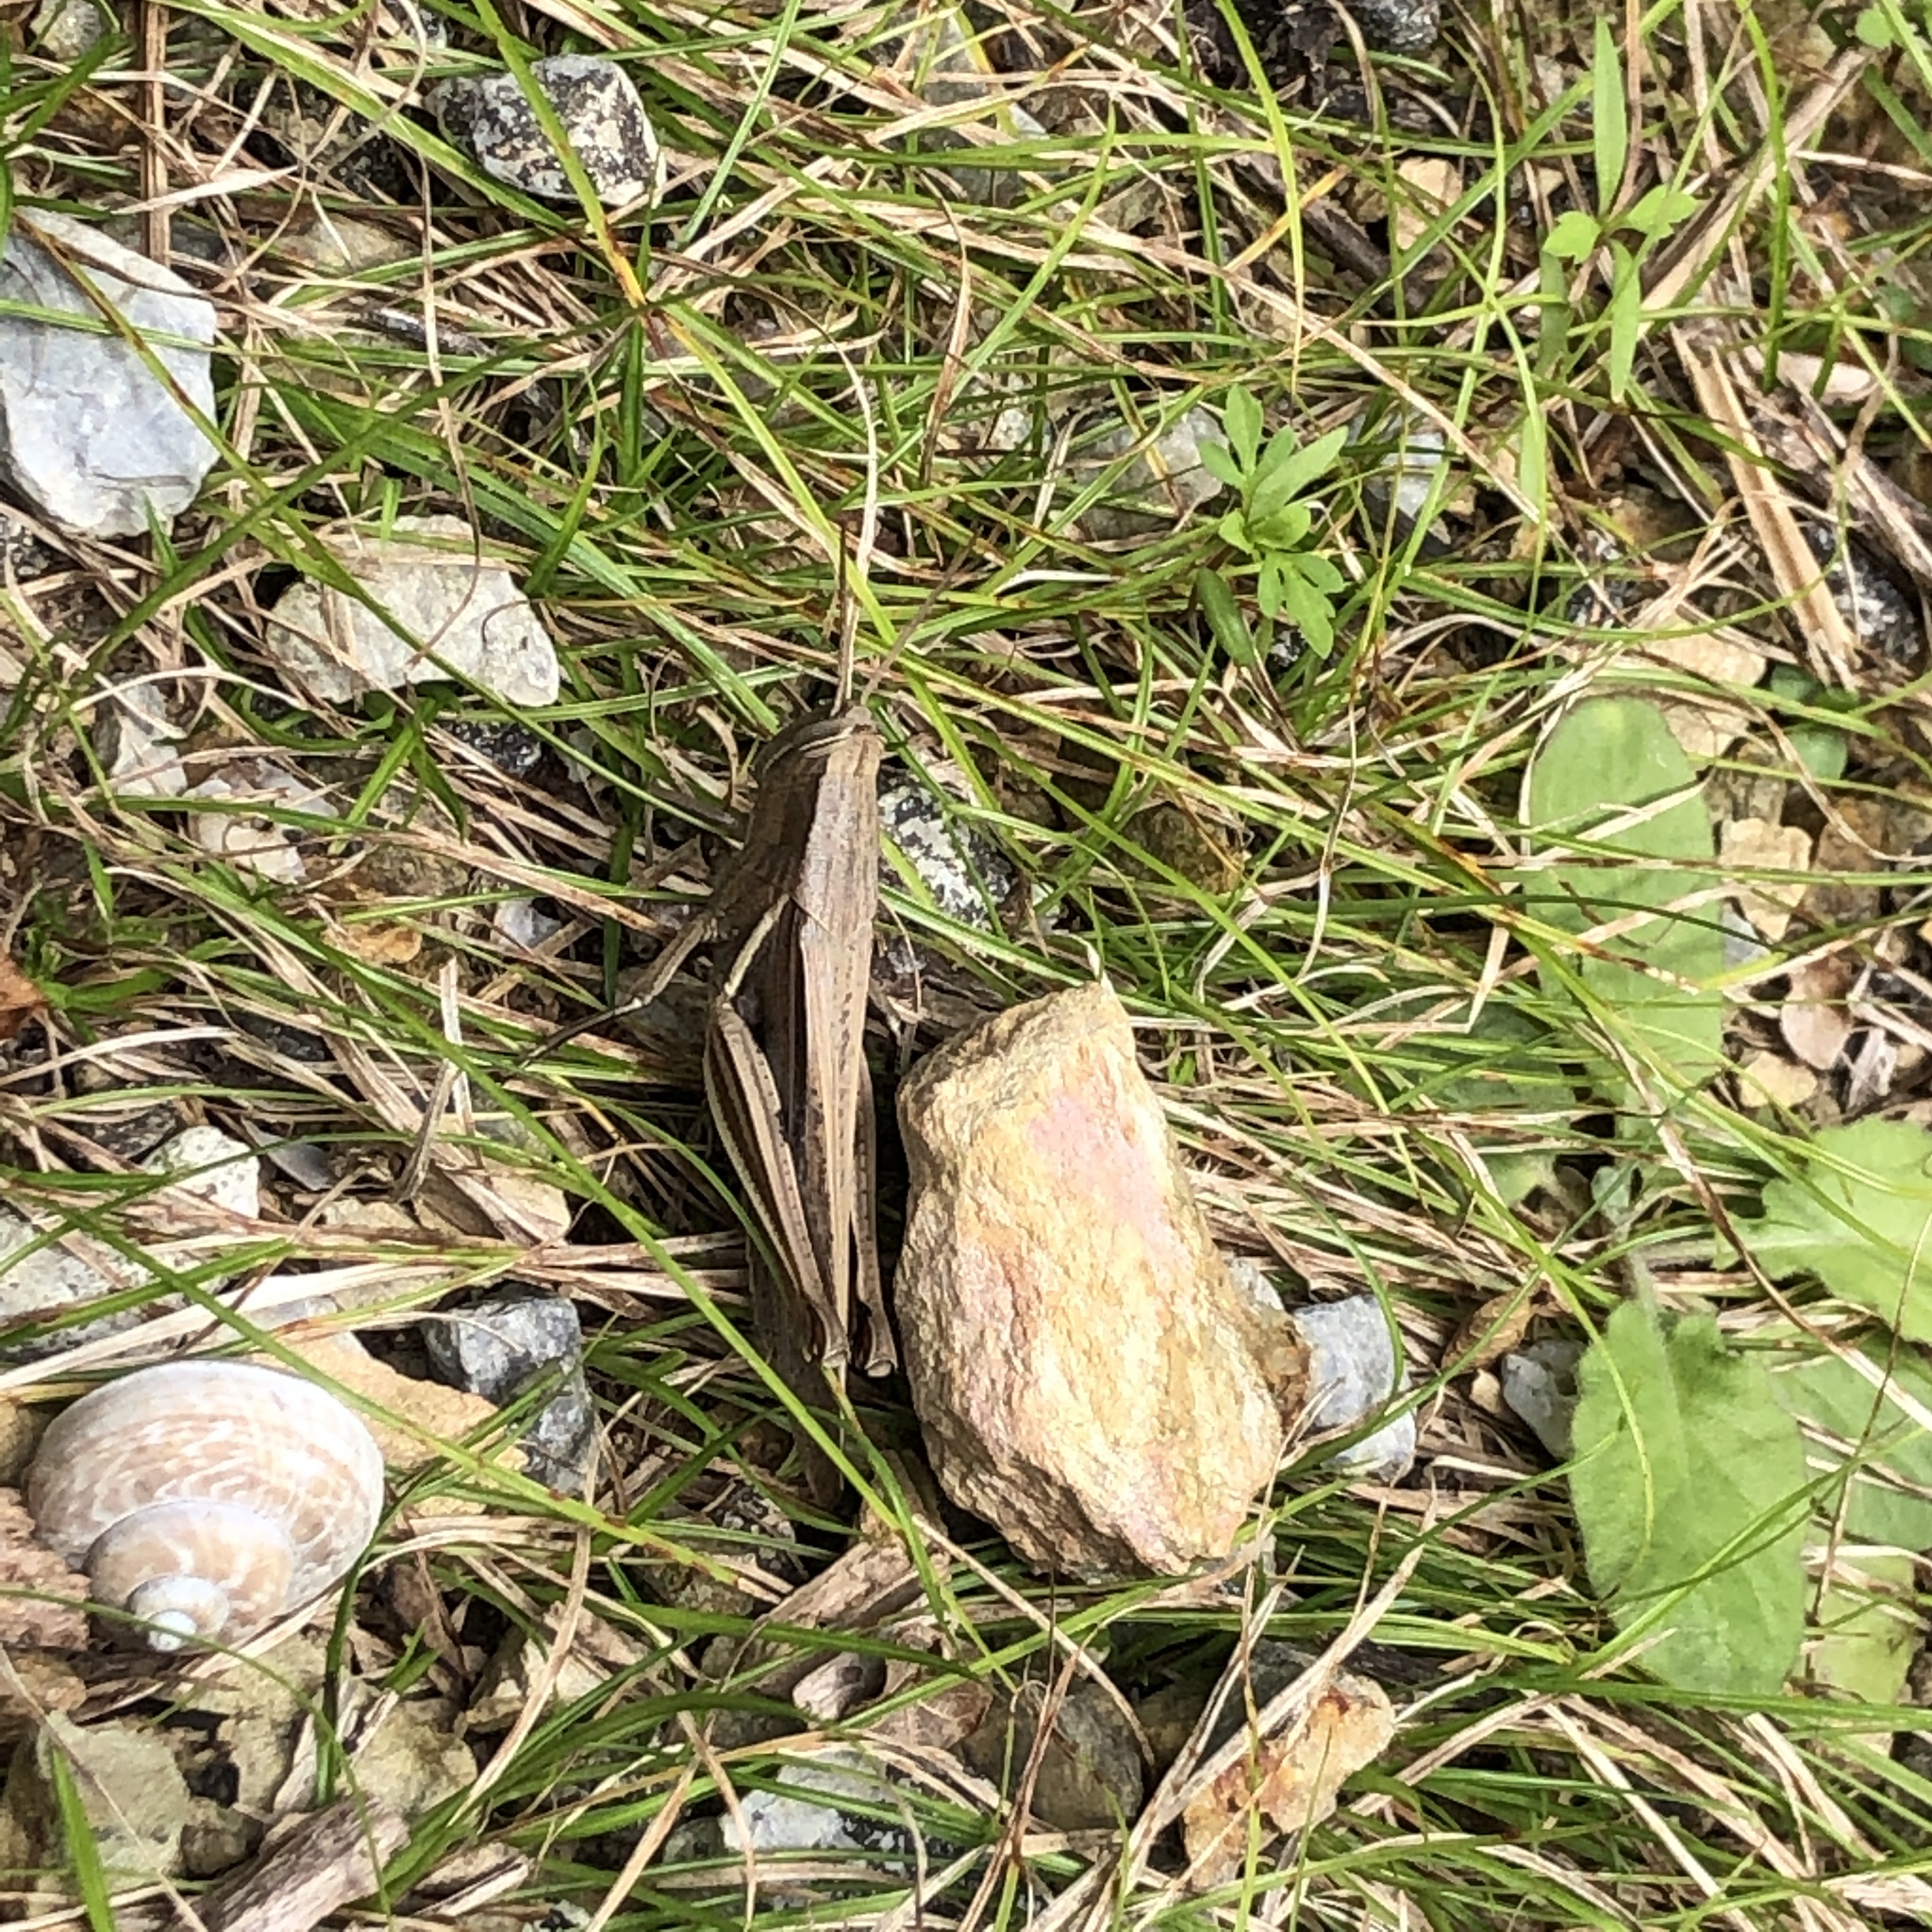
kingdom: Animalia
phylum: Arthropoda
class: Insecta
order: Orthoptera
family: Acrididae
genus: Stenocatantops
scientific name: Stenocatantops mistshenkoi
